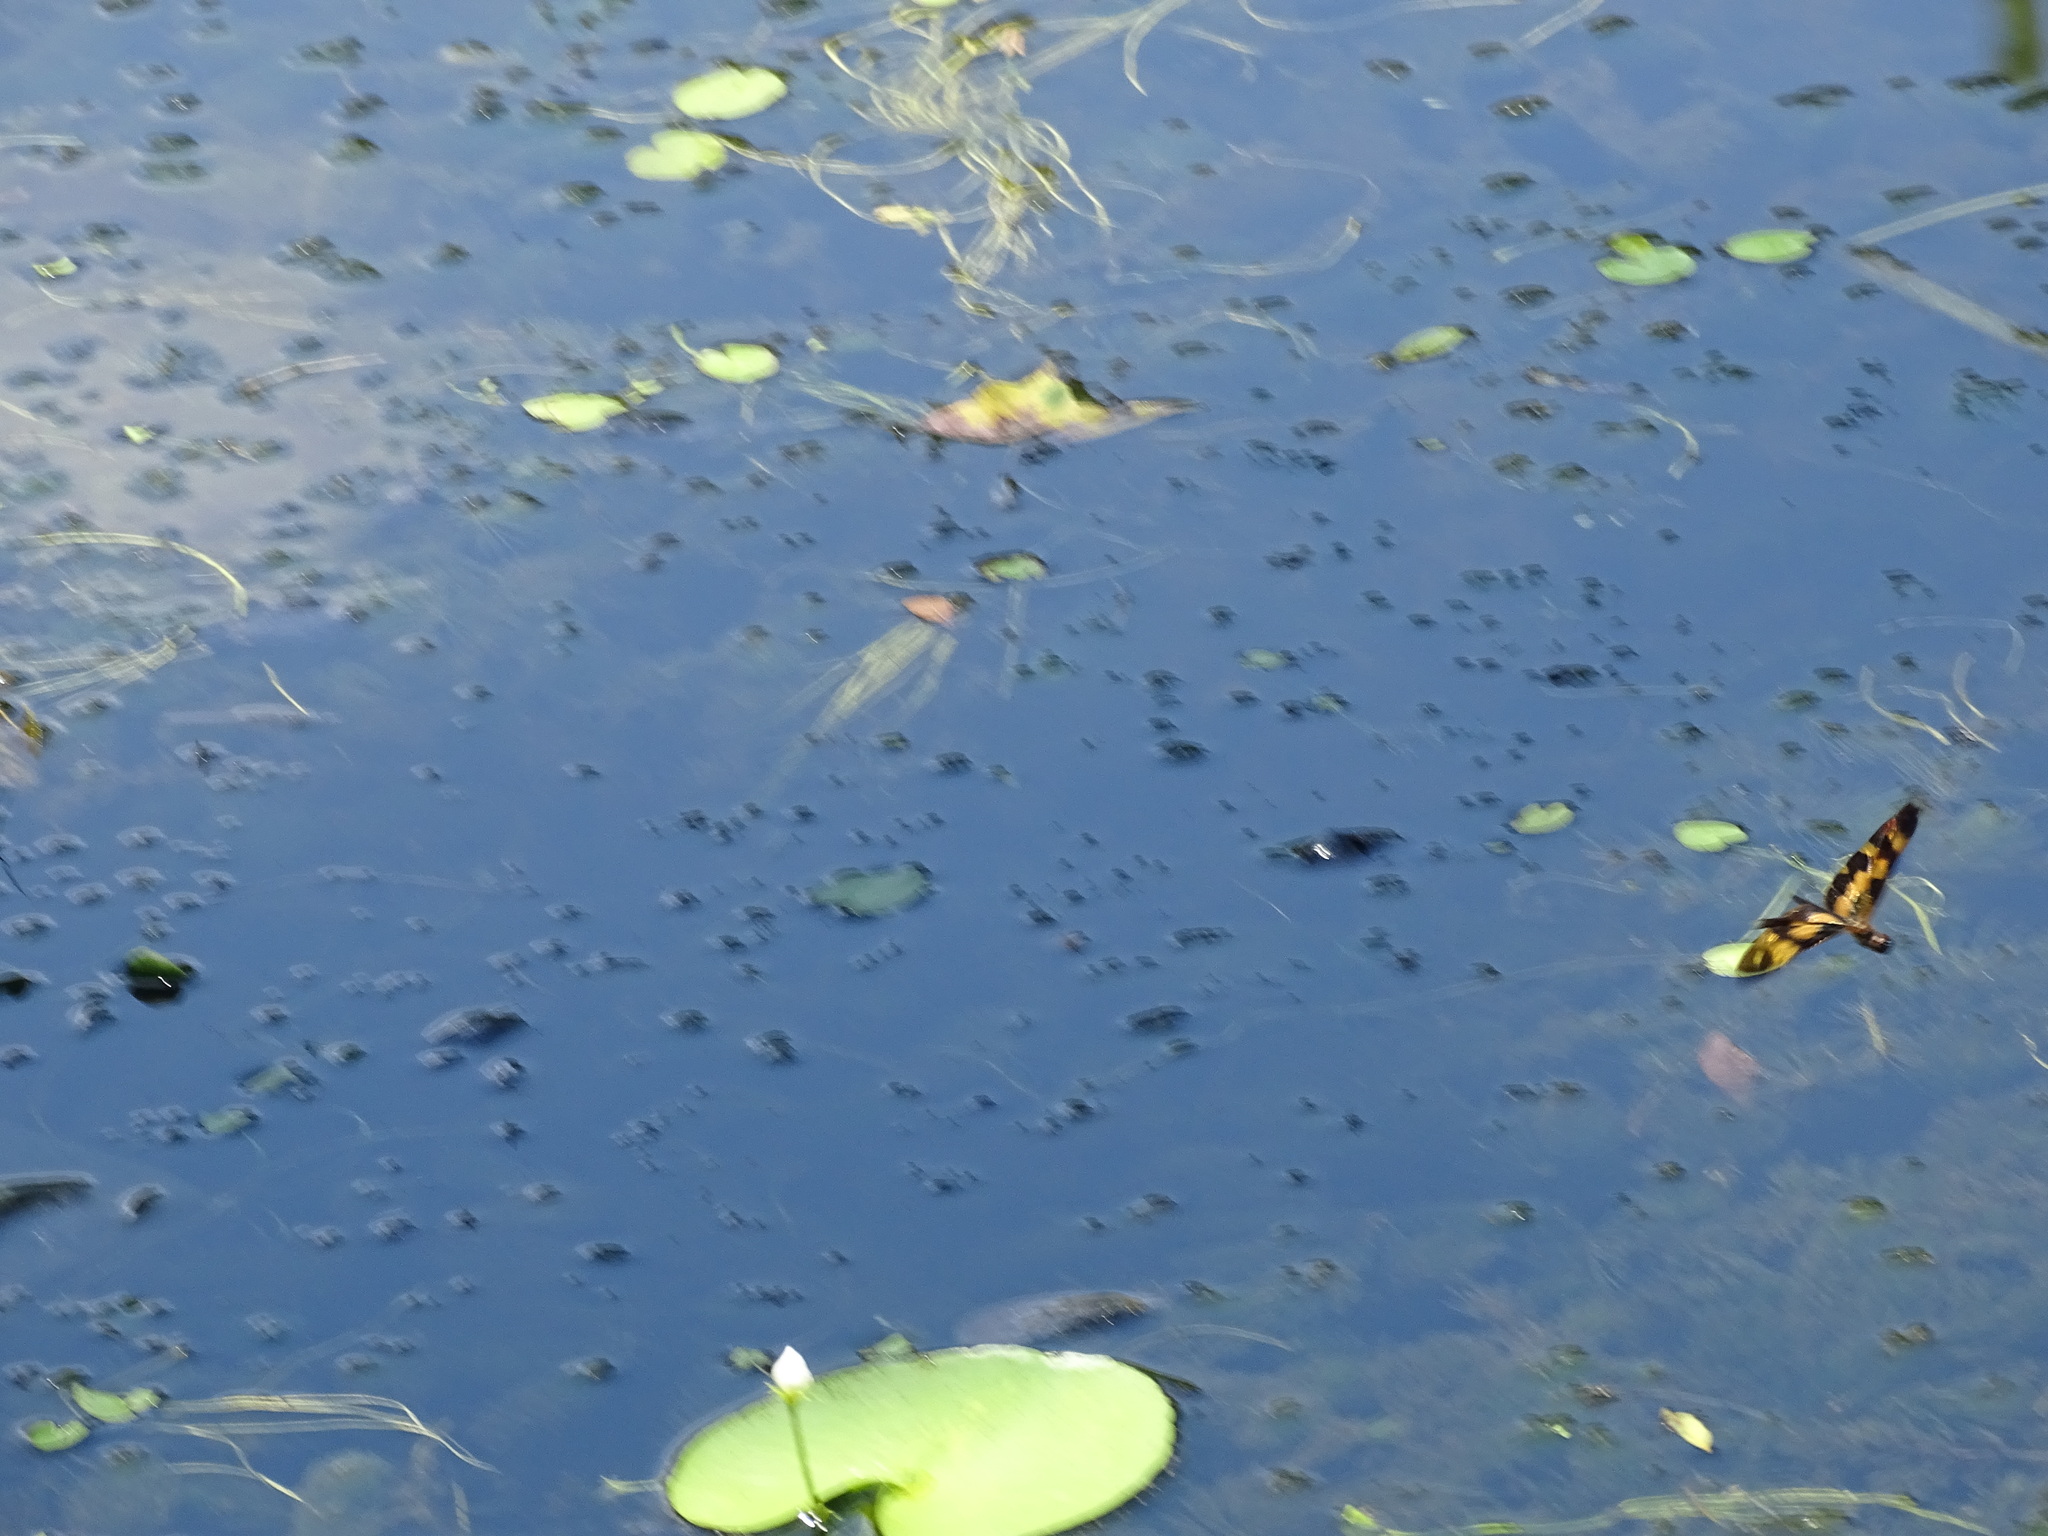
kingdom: Animalia
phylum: Arthropoda
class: Insecta
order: Odonata
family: Libellulidae
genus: Rhyothemis
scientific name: Rhyothemis variegata
